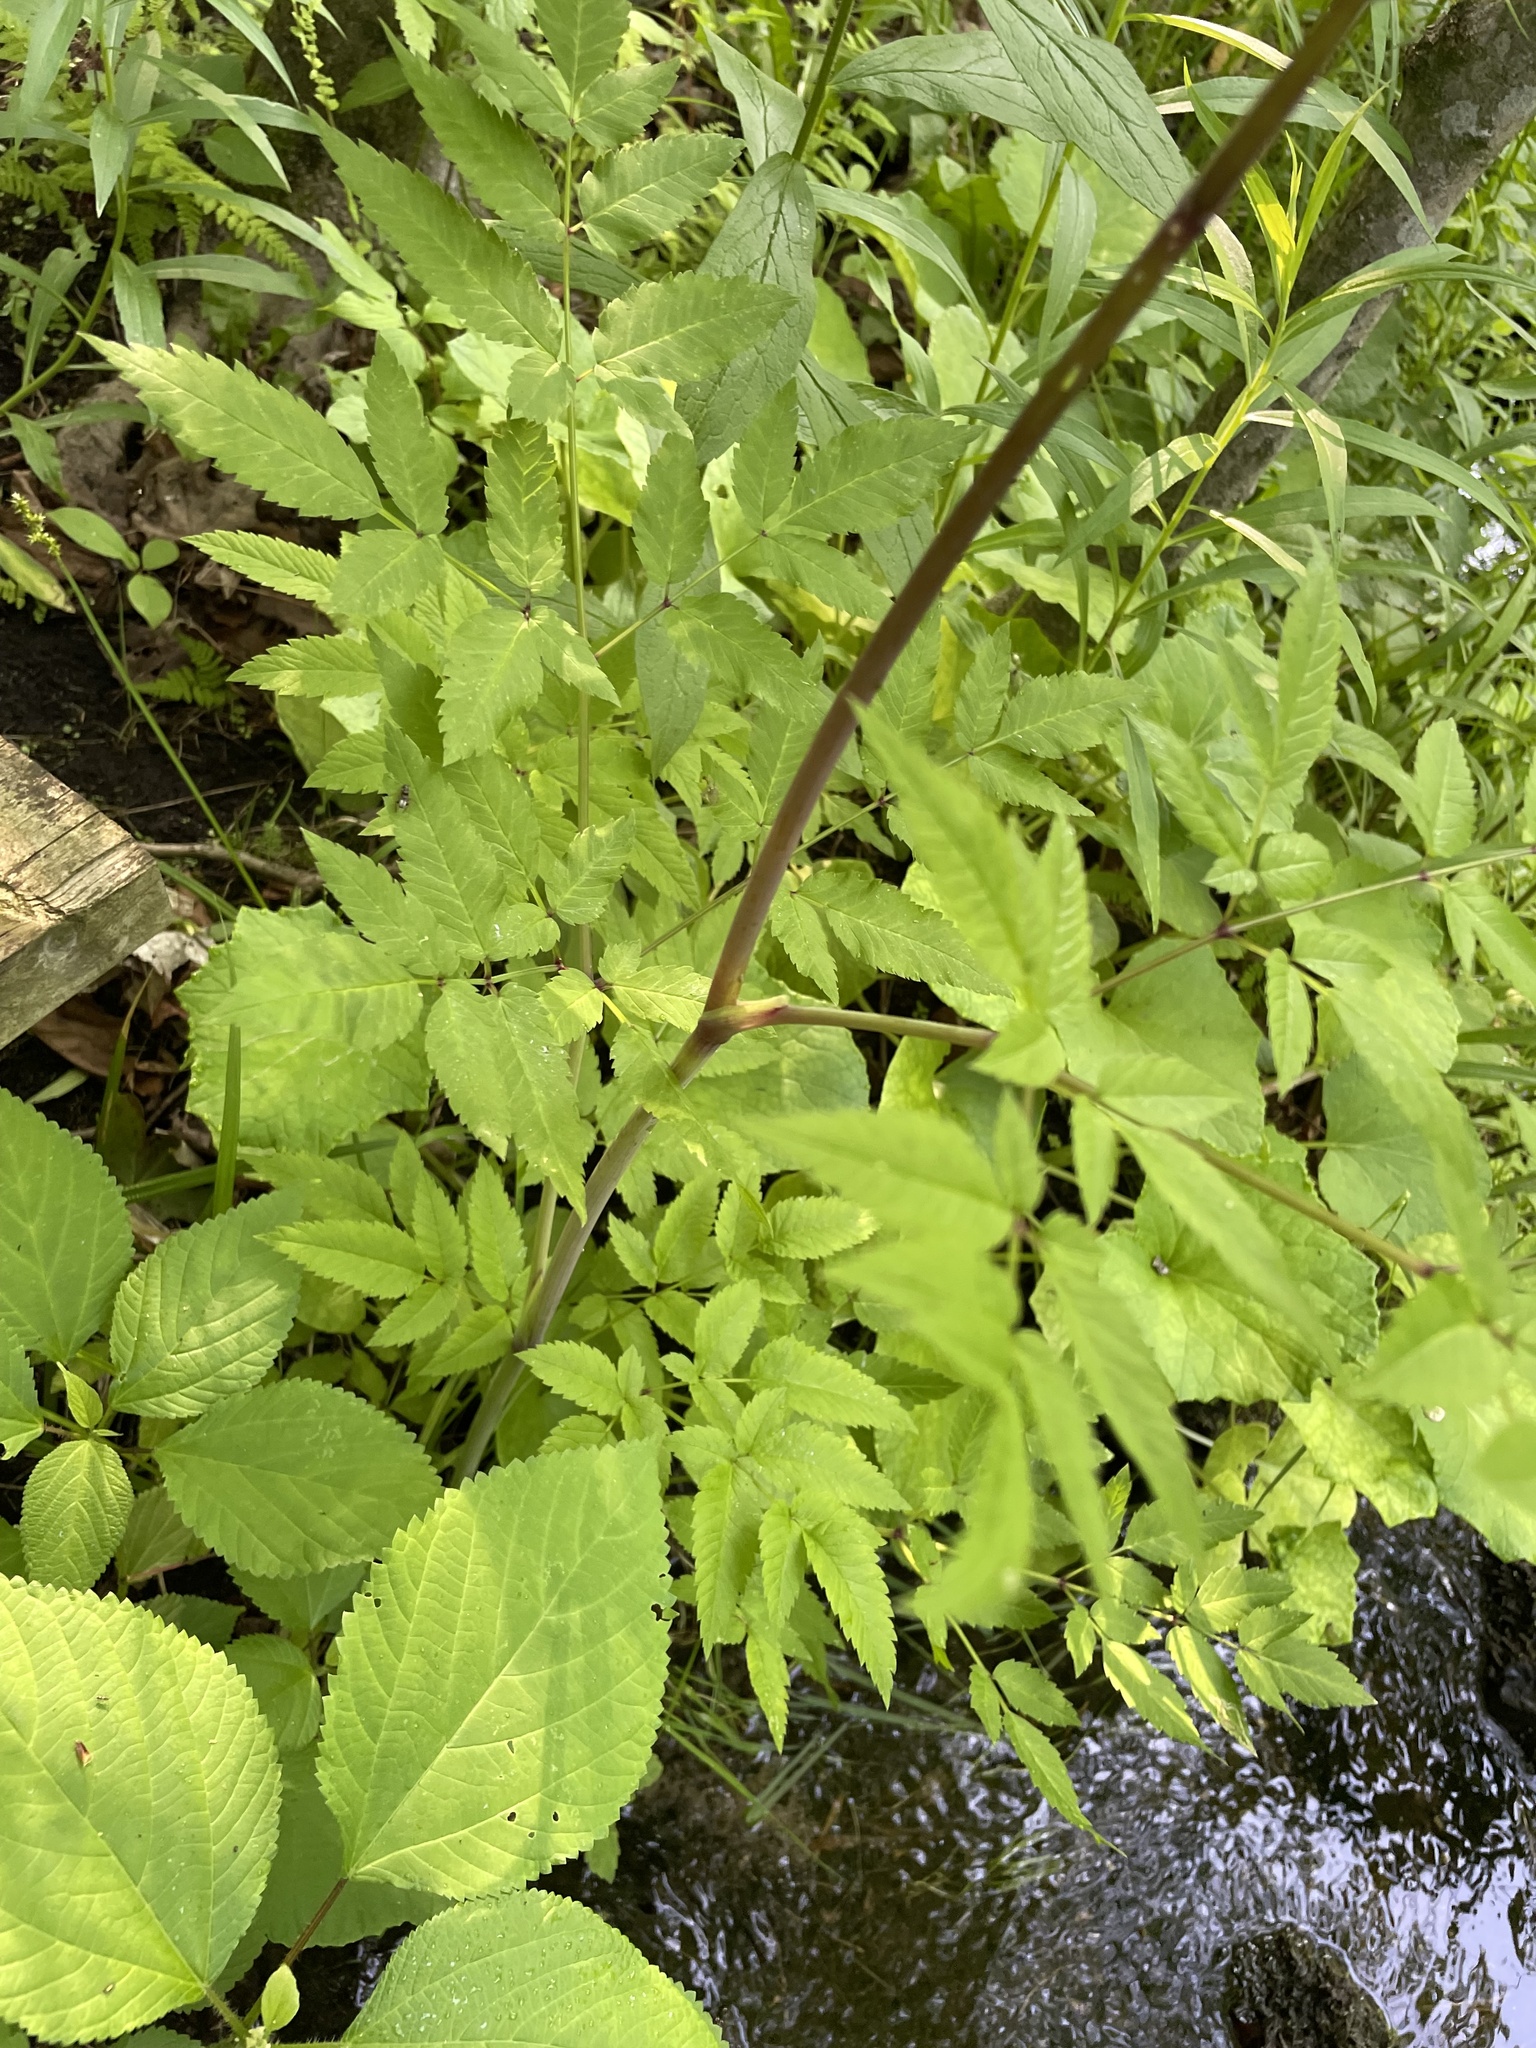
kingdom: Plantae
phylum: Tracheophyta
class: Magnoliopsida
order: Apiales
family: Apiaceae
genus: Cicuta
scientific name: Cicuta maculata
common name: Spotted cowbane
